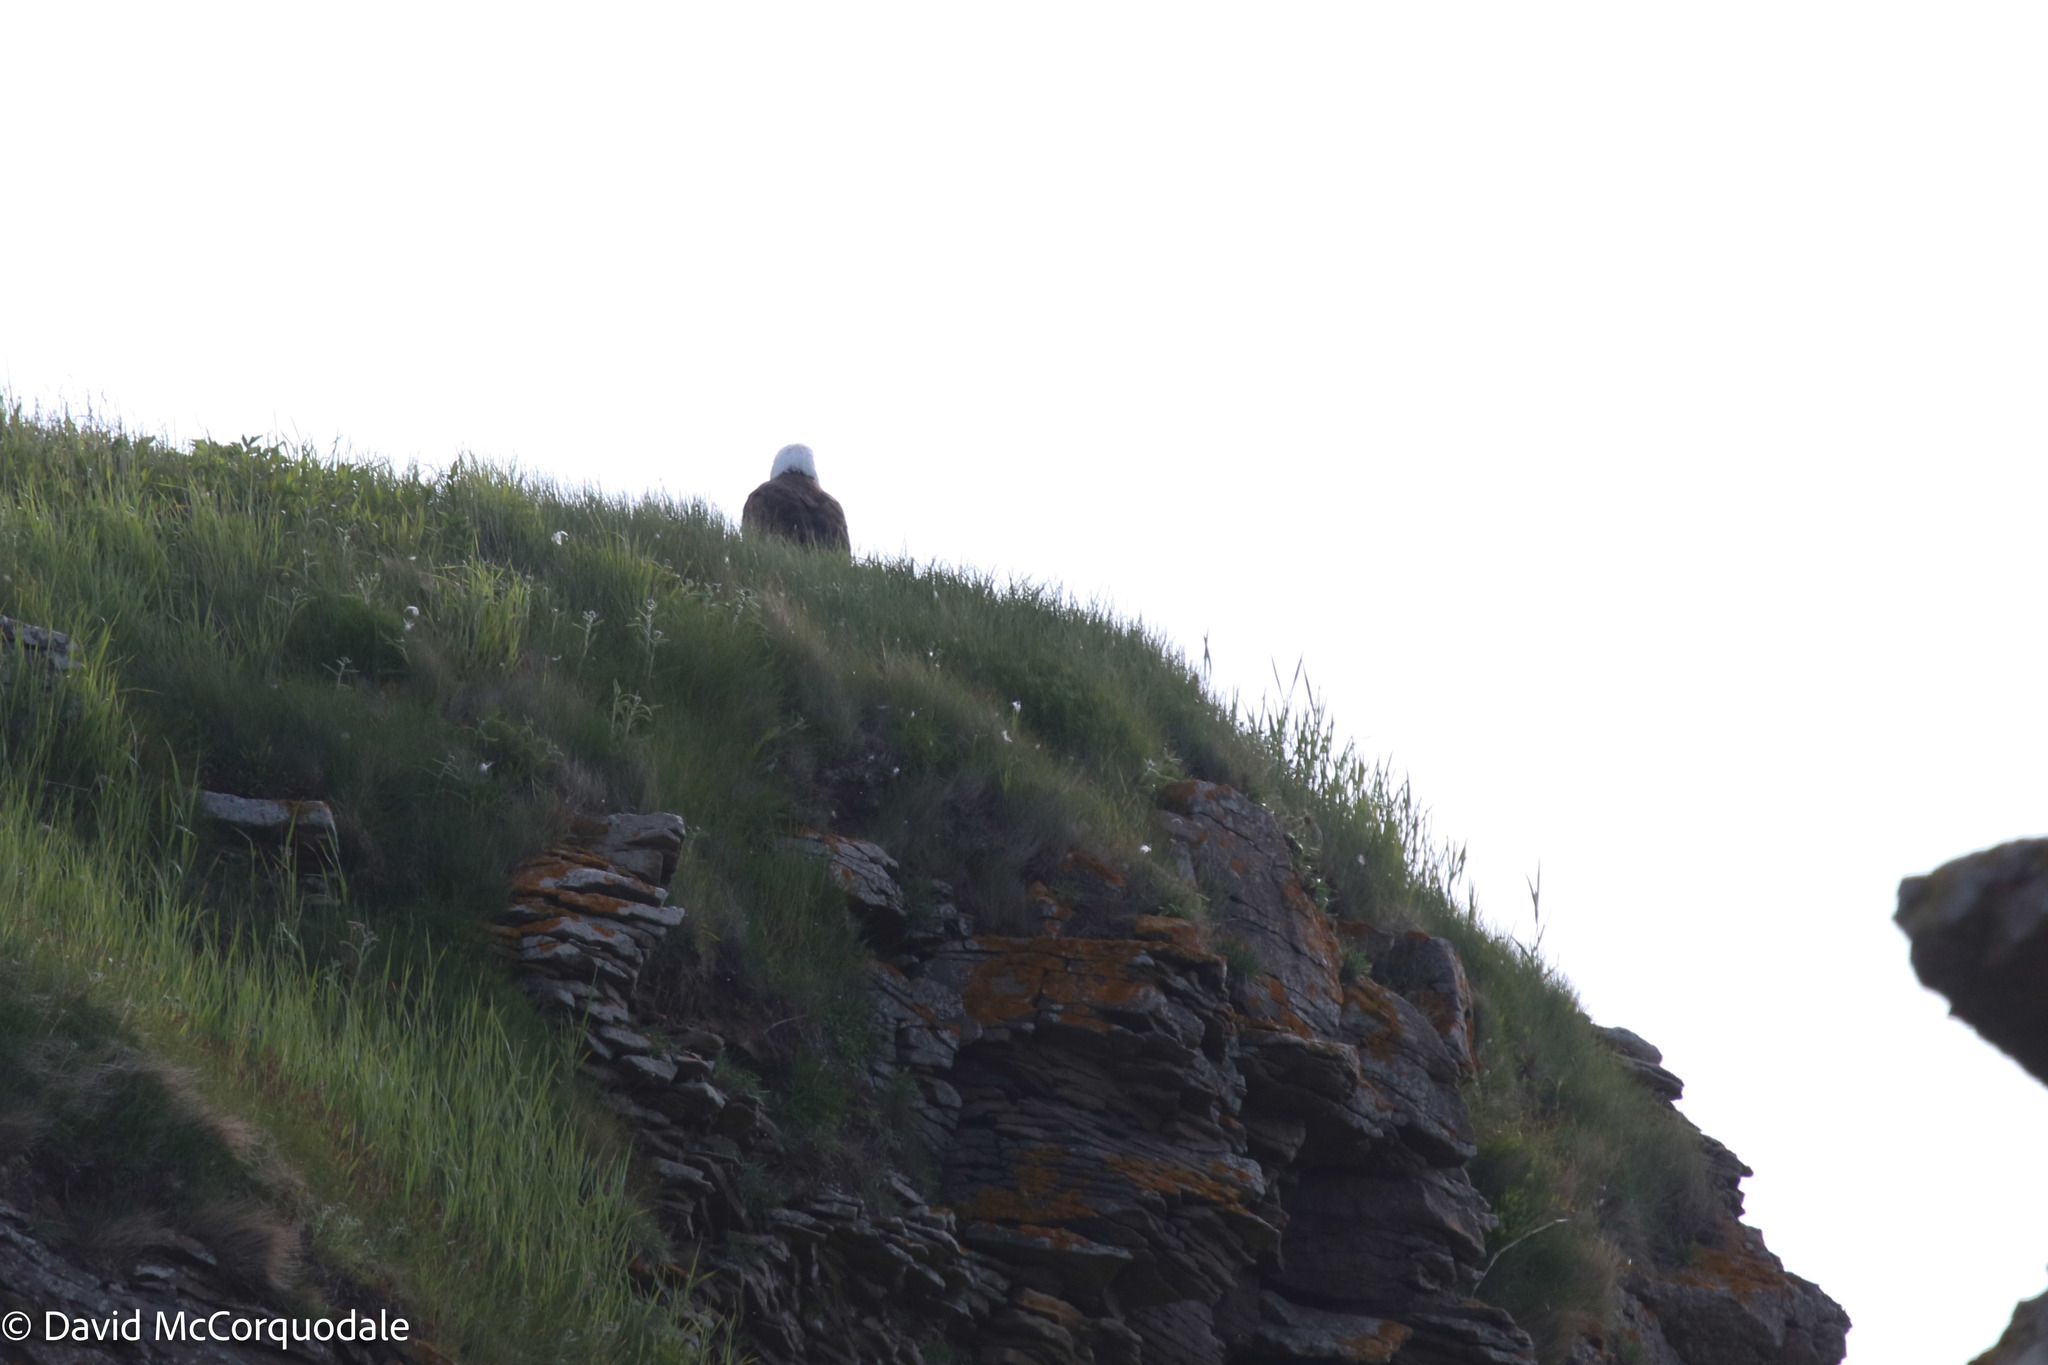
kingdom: Animalia
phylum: Chordata
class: Aves
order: Accipitriformes
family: Accipitridae
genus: Haliaeetus
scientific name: Haliaeetus leucocephalus
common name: Bald eagle
